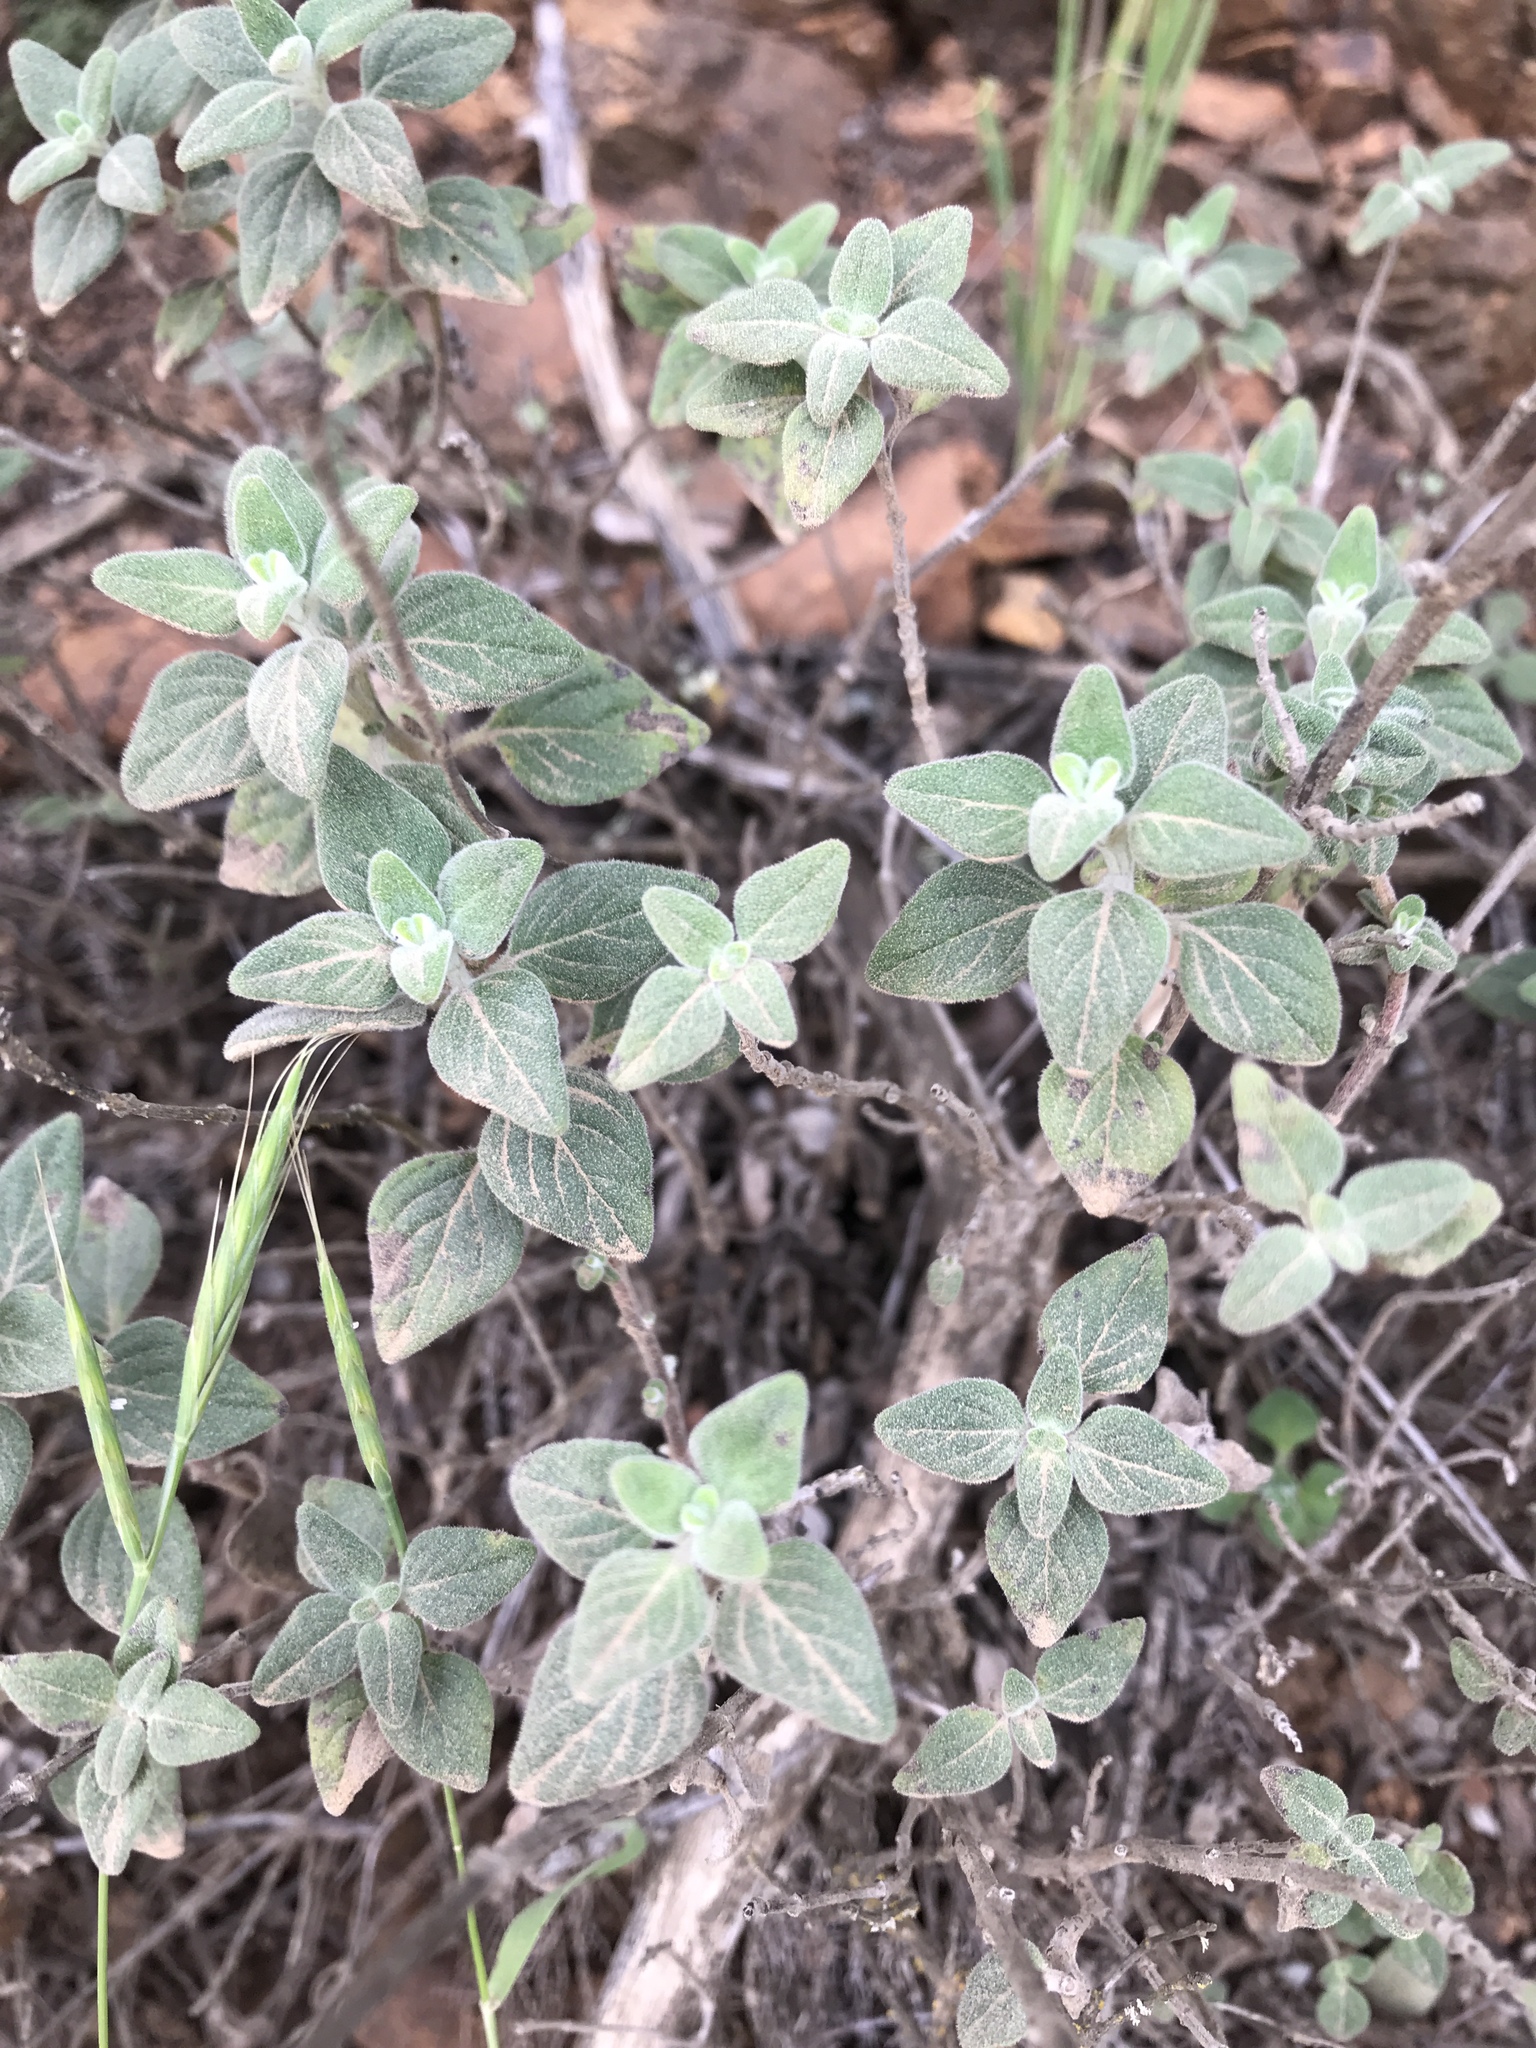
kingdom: Plantae
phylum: Tracheophyta
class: Magnoliopsida
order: Lamiales
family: Lamiaceae
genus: Monardella
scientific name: Monardella odoratissima
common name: Pacific monardella
